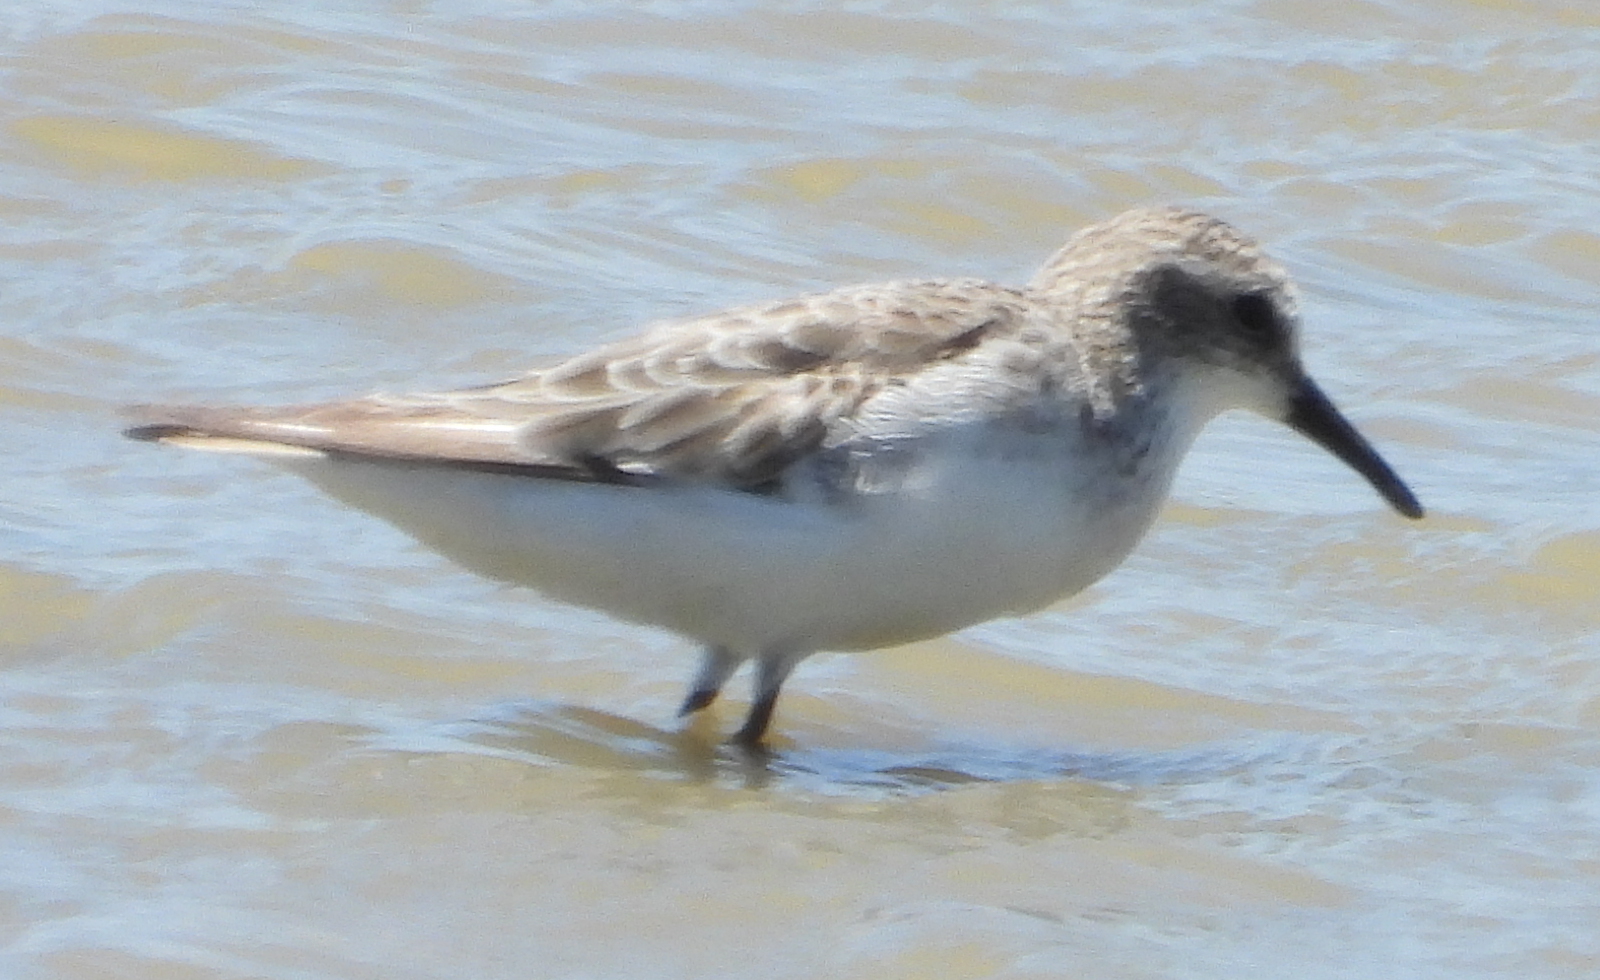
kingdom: Animalia
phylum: Chordata
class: Aves
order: Charadriiformes
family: Scolopacidae
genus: Calidris
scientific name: Calidris minuta
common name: Little stint
